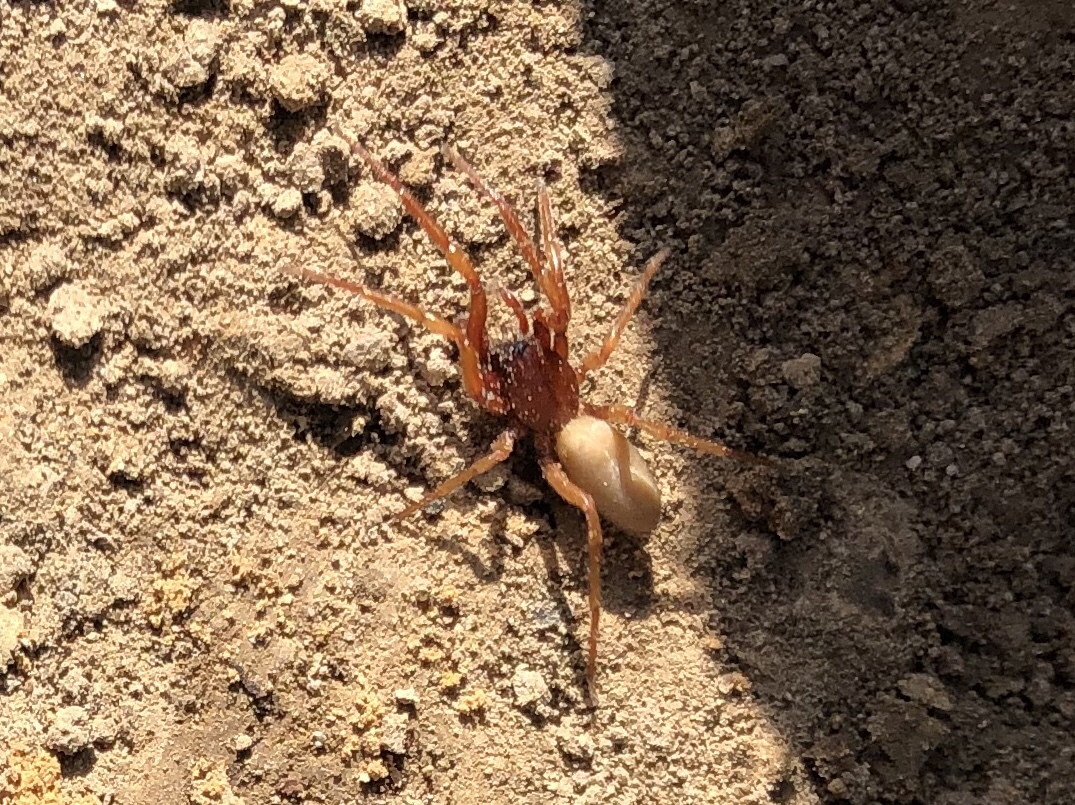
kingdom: Animalia
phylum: Arthropoda
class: Arachnida
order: Araneae
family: Dysderidae
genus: Dysdera
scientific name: Dysdera crocata
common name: Woodlouse spider
